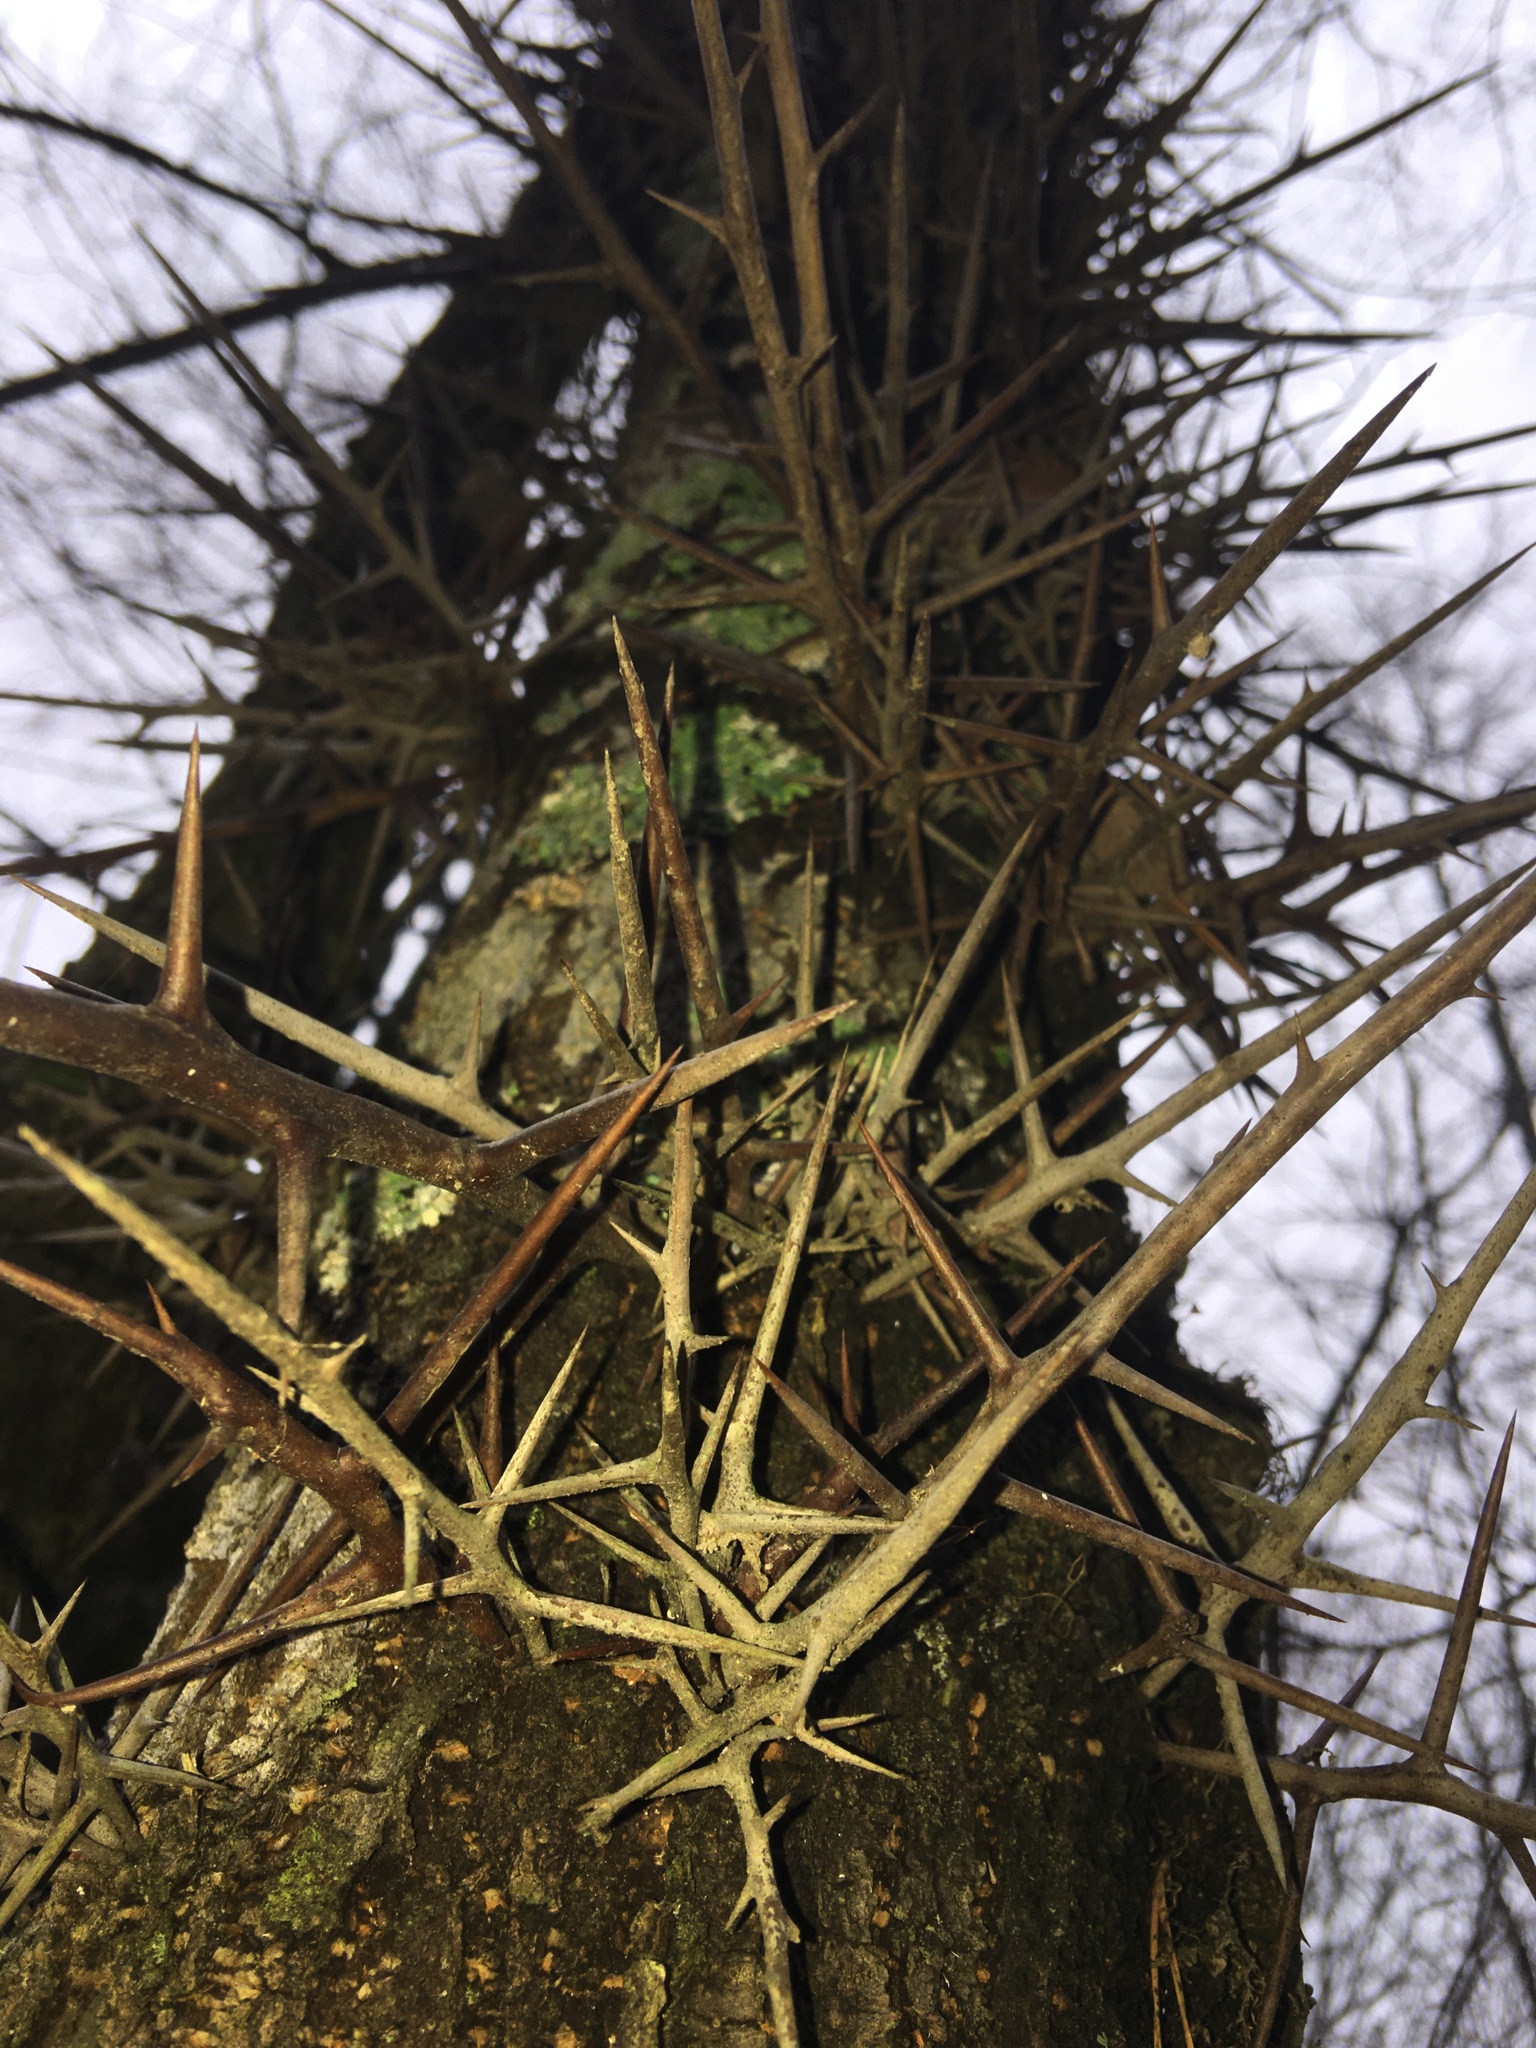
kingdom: Plantae
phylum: Tracheophyta
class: Magnoliopsida
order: Fabales
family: Fabaceae
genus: Gleditsia
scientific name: Gleditsia triacanthos
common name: Common honeylocust
